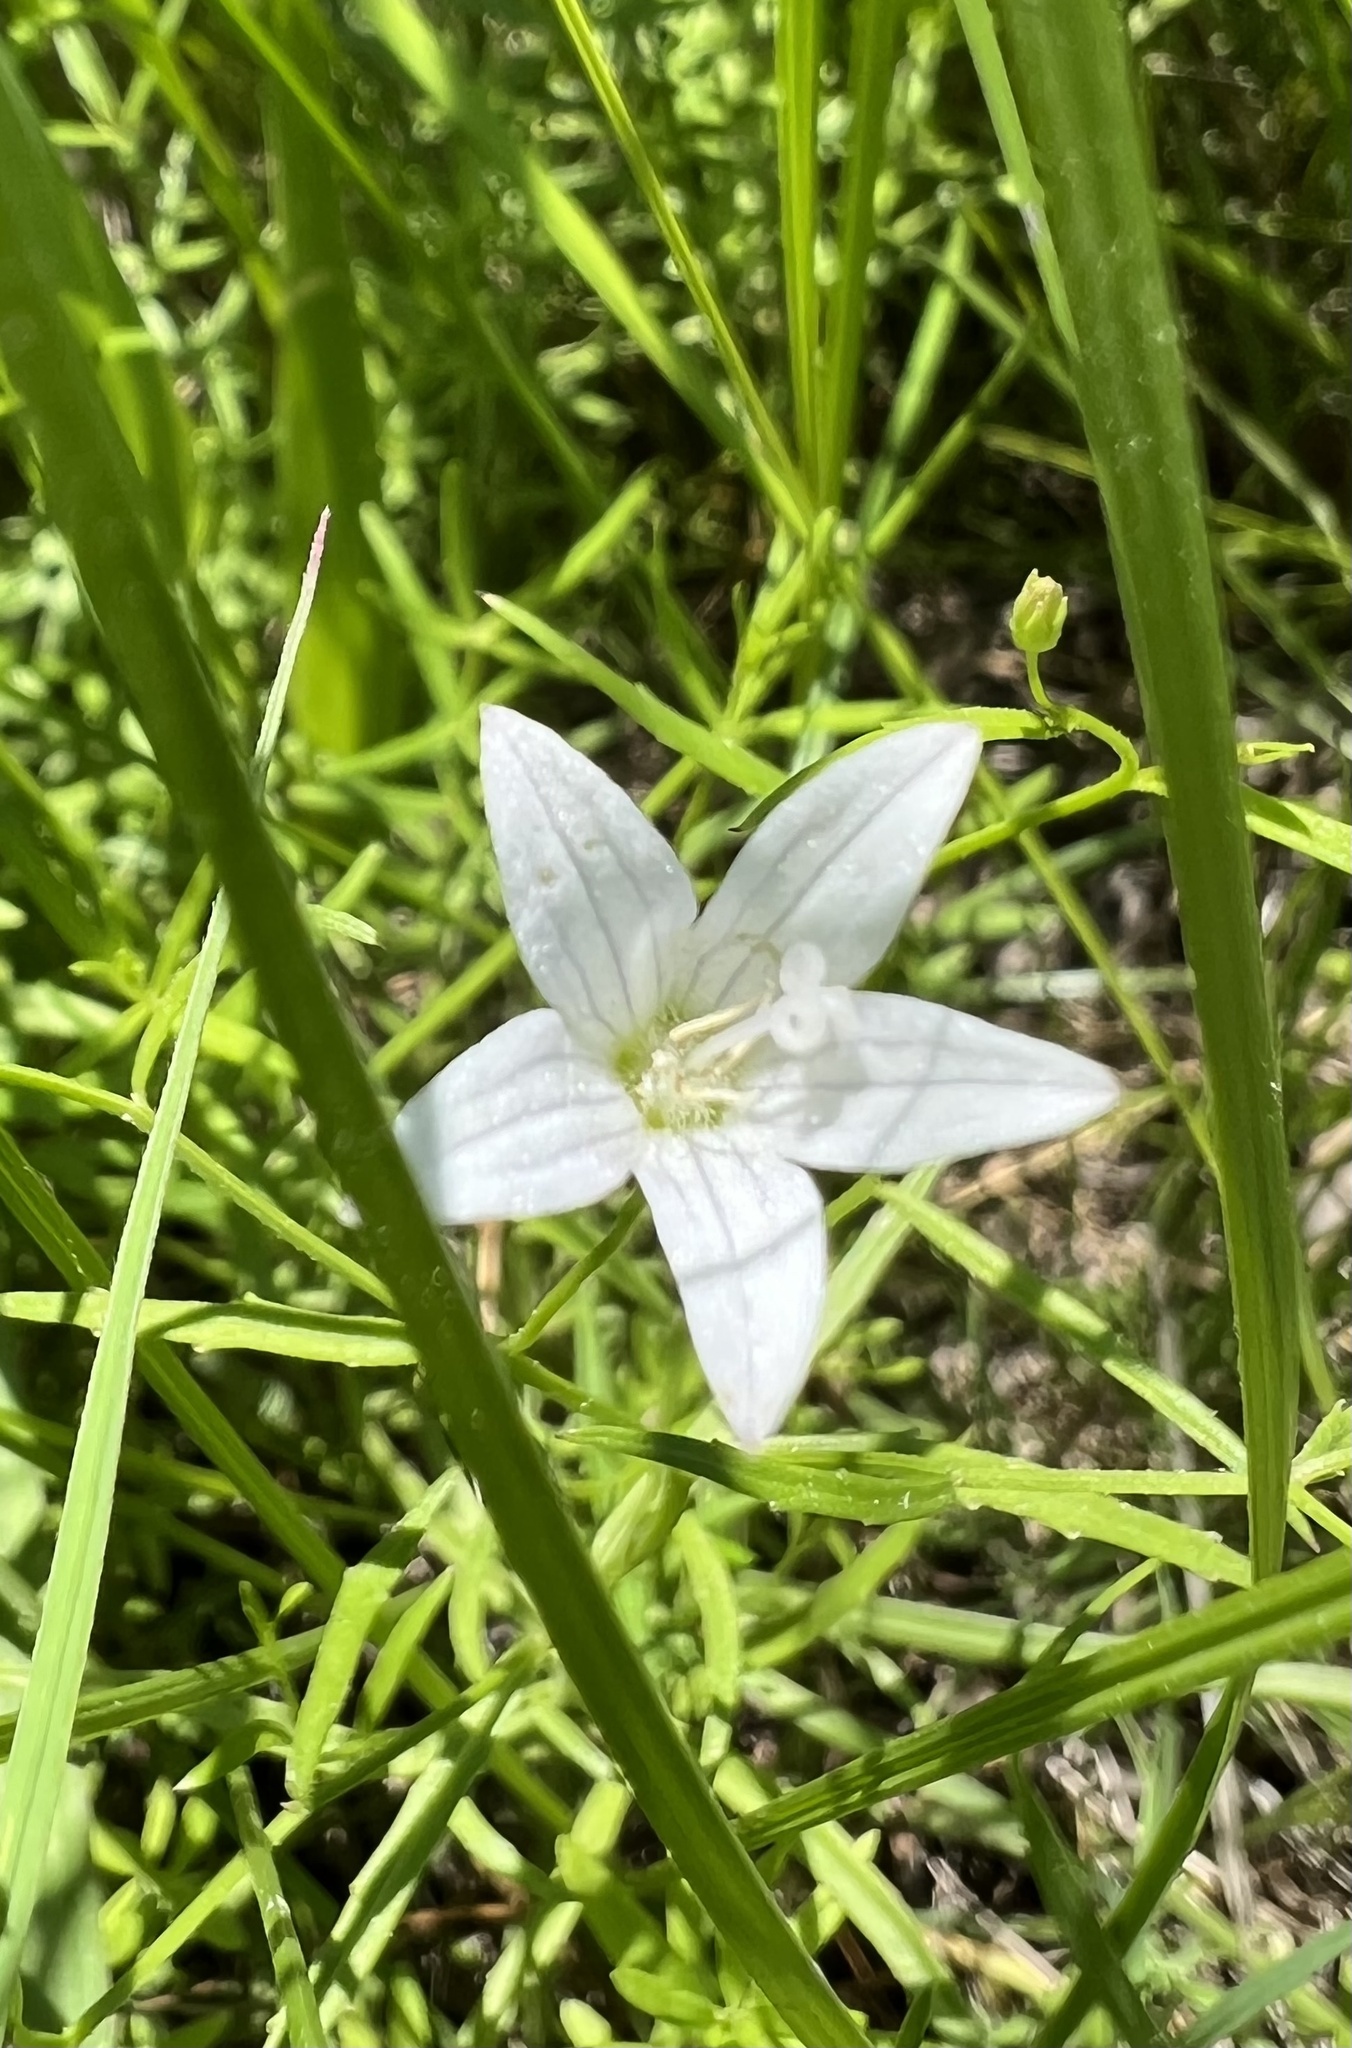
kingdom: Plantae
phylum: Tracheophyta
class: Magnoliopsida
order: Asterales
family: Campanulaceae
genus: Palustricodon
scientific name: Palustricodon aparinoides
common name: Bedstraw bellflower
